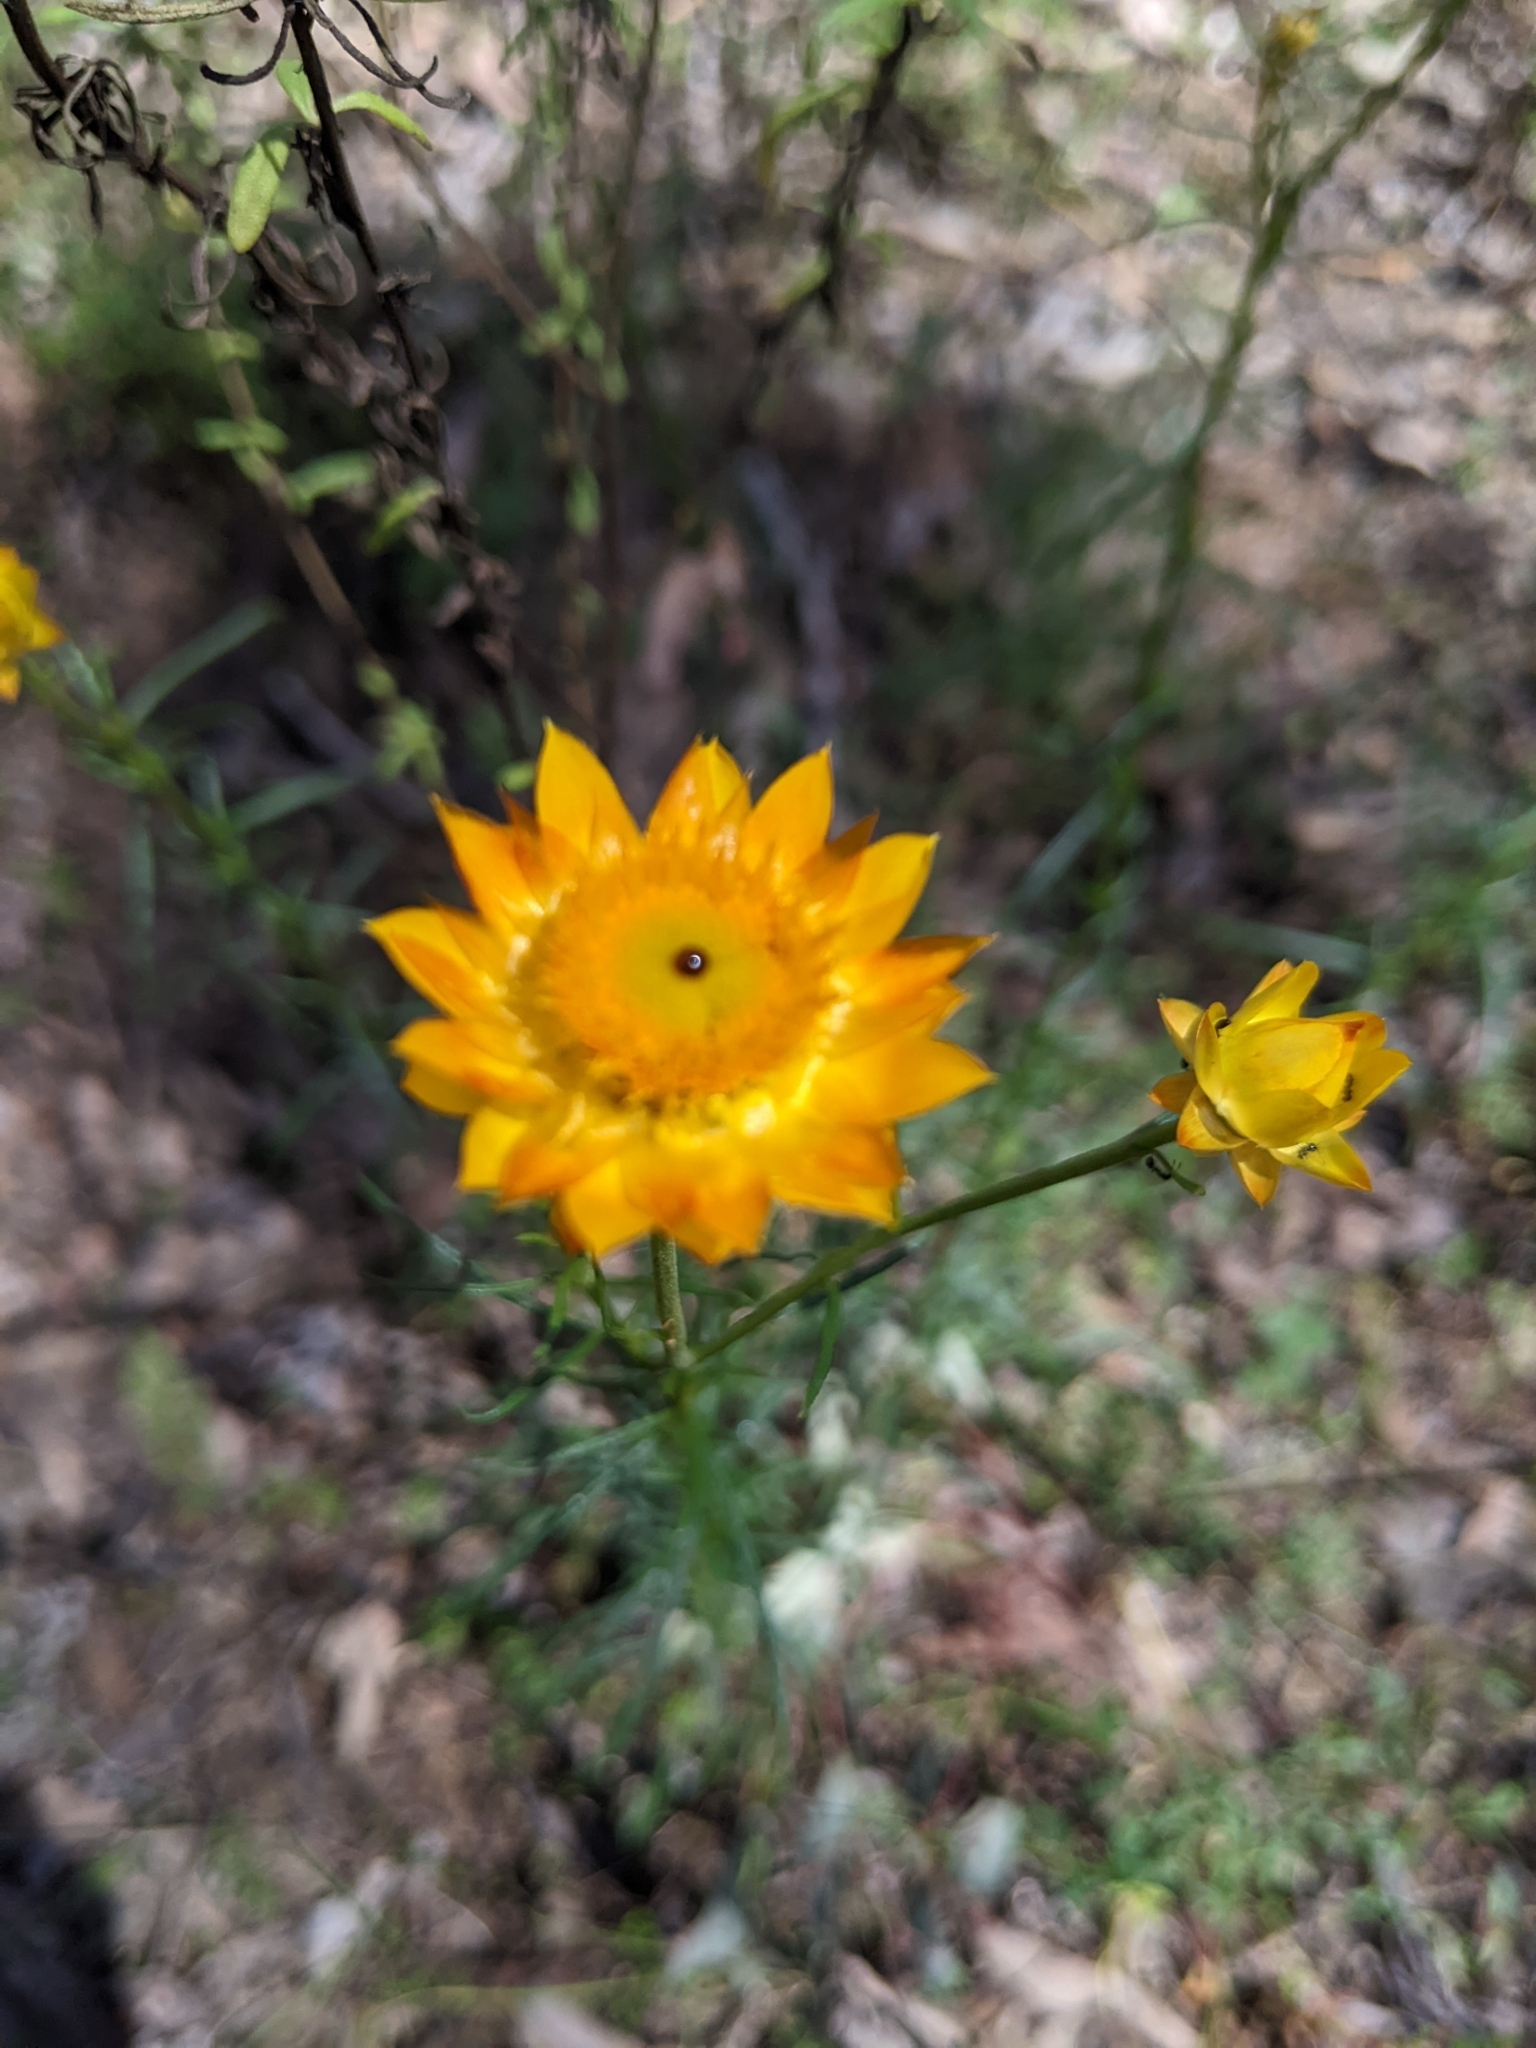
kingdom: Plantae
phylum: Tracheophyta
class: Magnoliopsida
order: Asterales
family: Asteraceae
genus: Xerochrysum
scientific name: Xerochrysum viscosum
